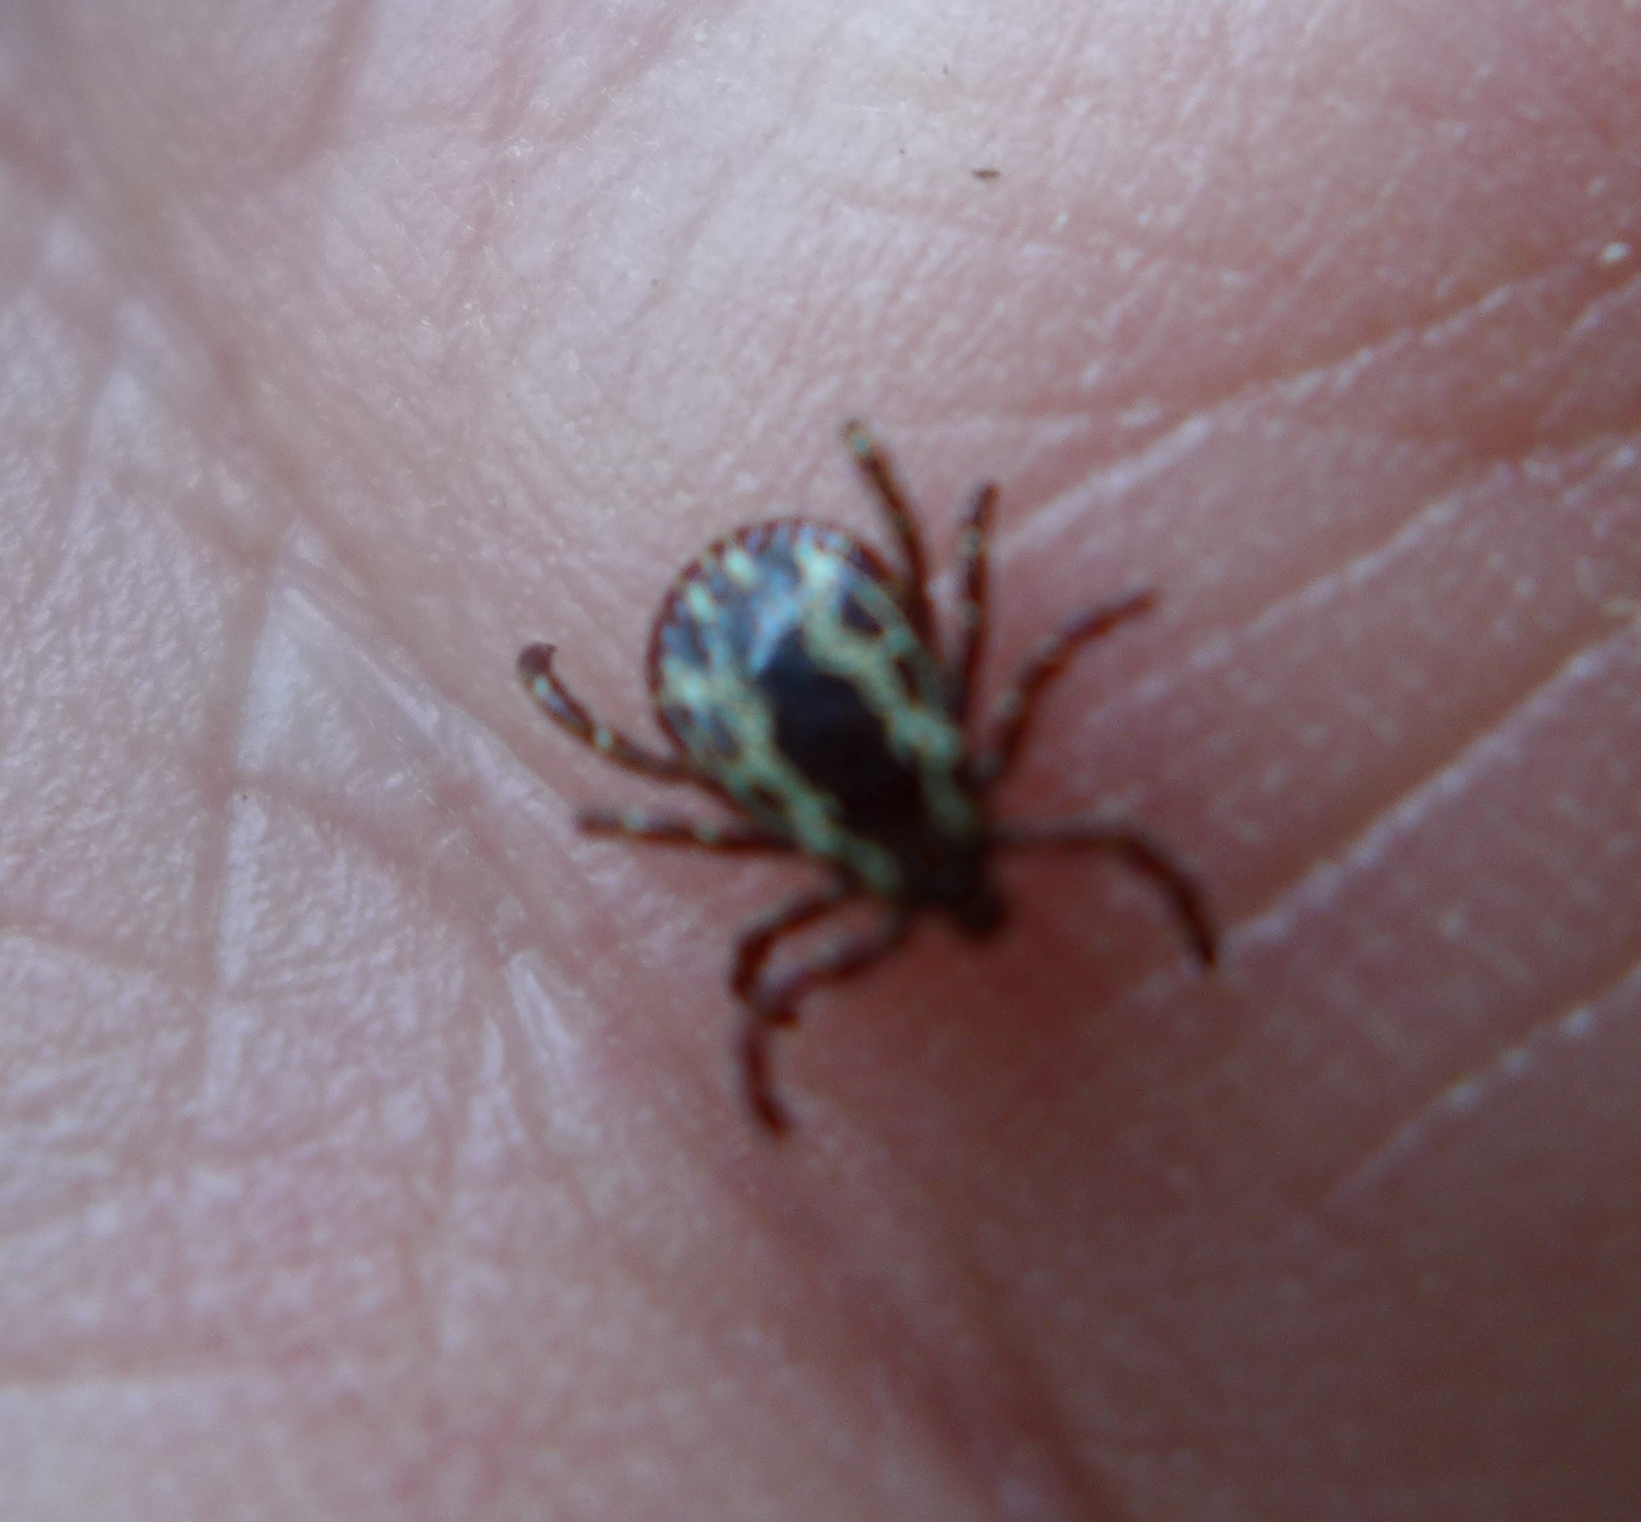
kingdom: Animalia
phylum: Arthropoda
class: Arachnida
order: Ixodida
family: Ixodidae
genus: Dermacentor
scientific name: Dermacentor variabilis
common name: American dog tick
